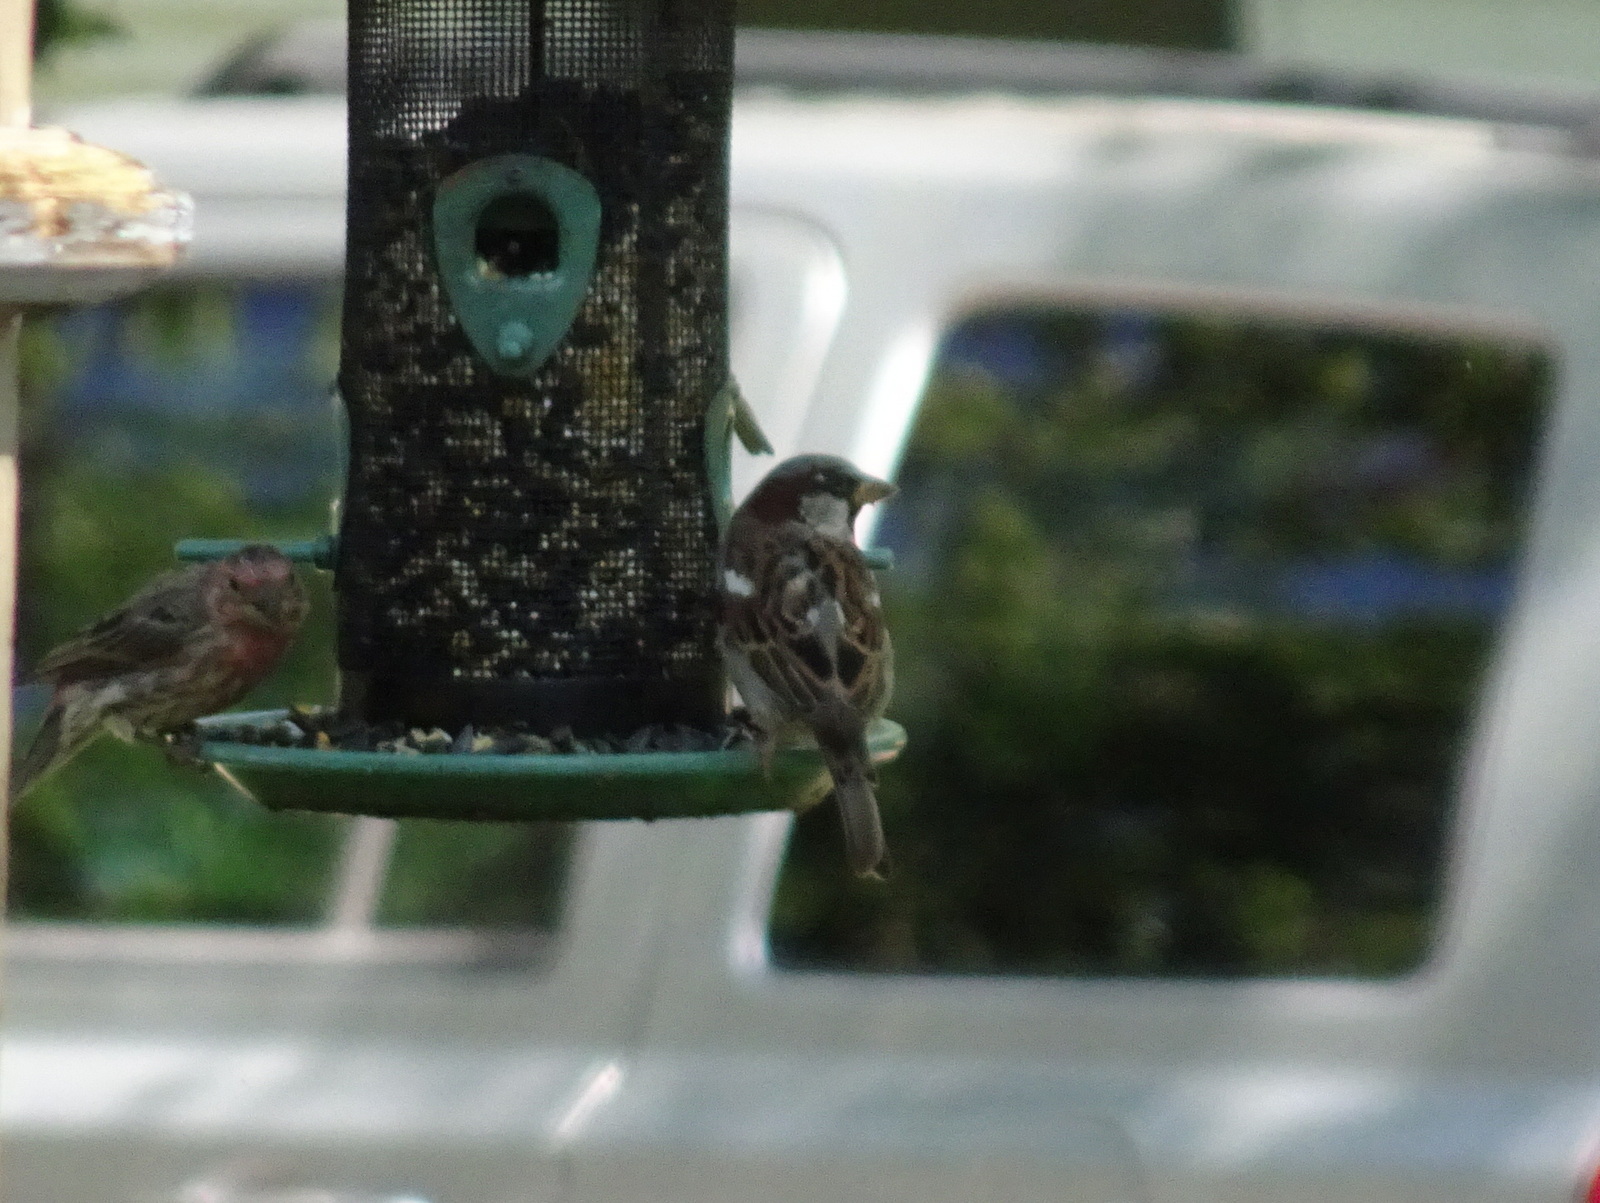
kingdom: Animalia
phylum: Chordata
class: Aves
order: Passeriformes
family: Passeridae
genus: Passer
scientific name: Passer domesticus
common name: House sparrow
